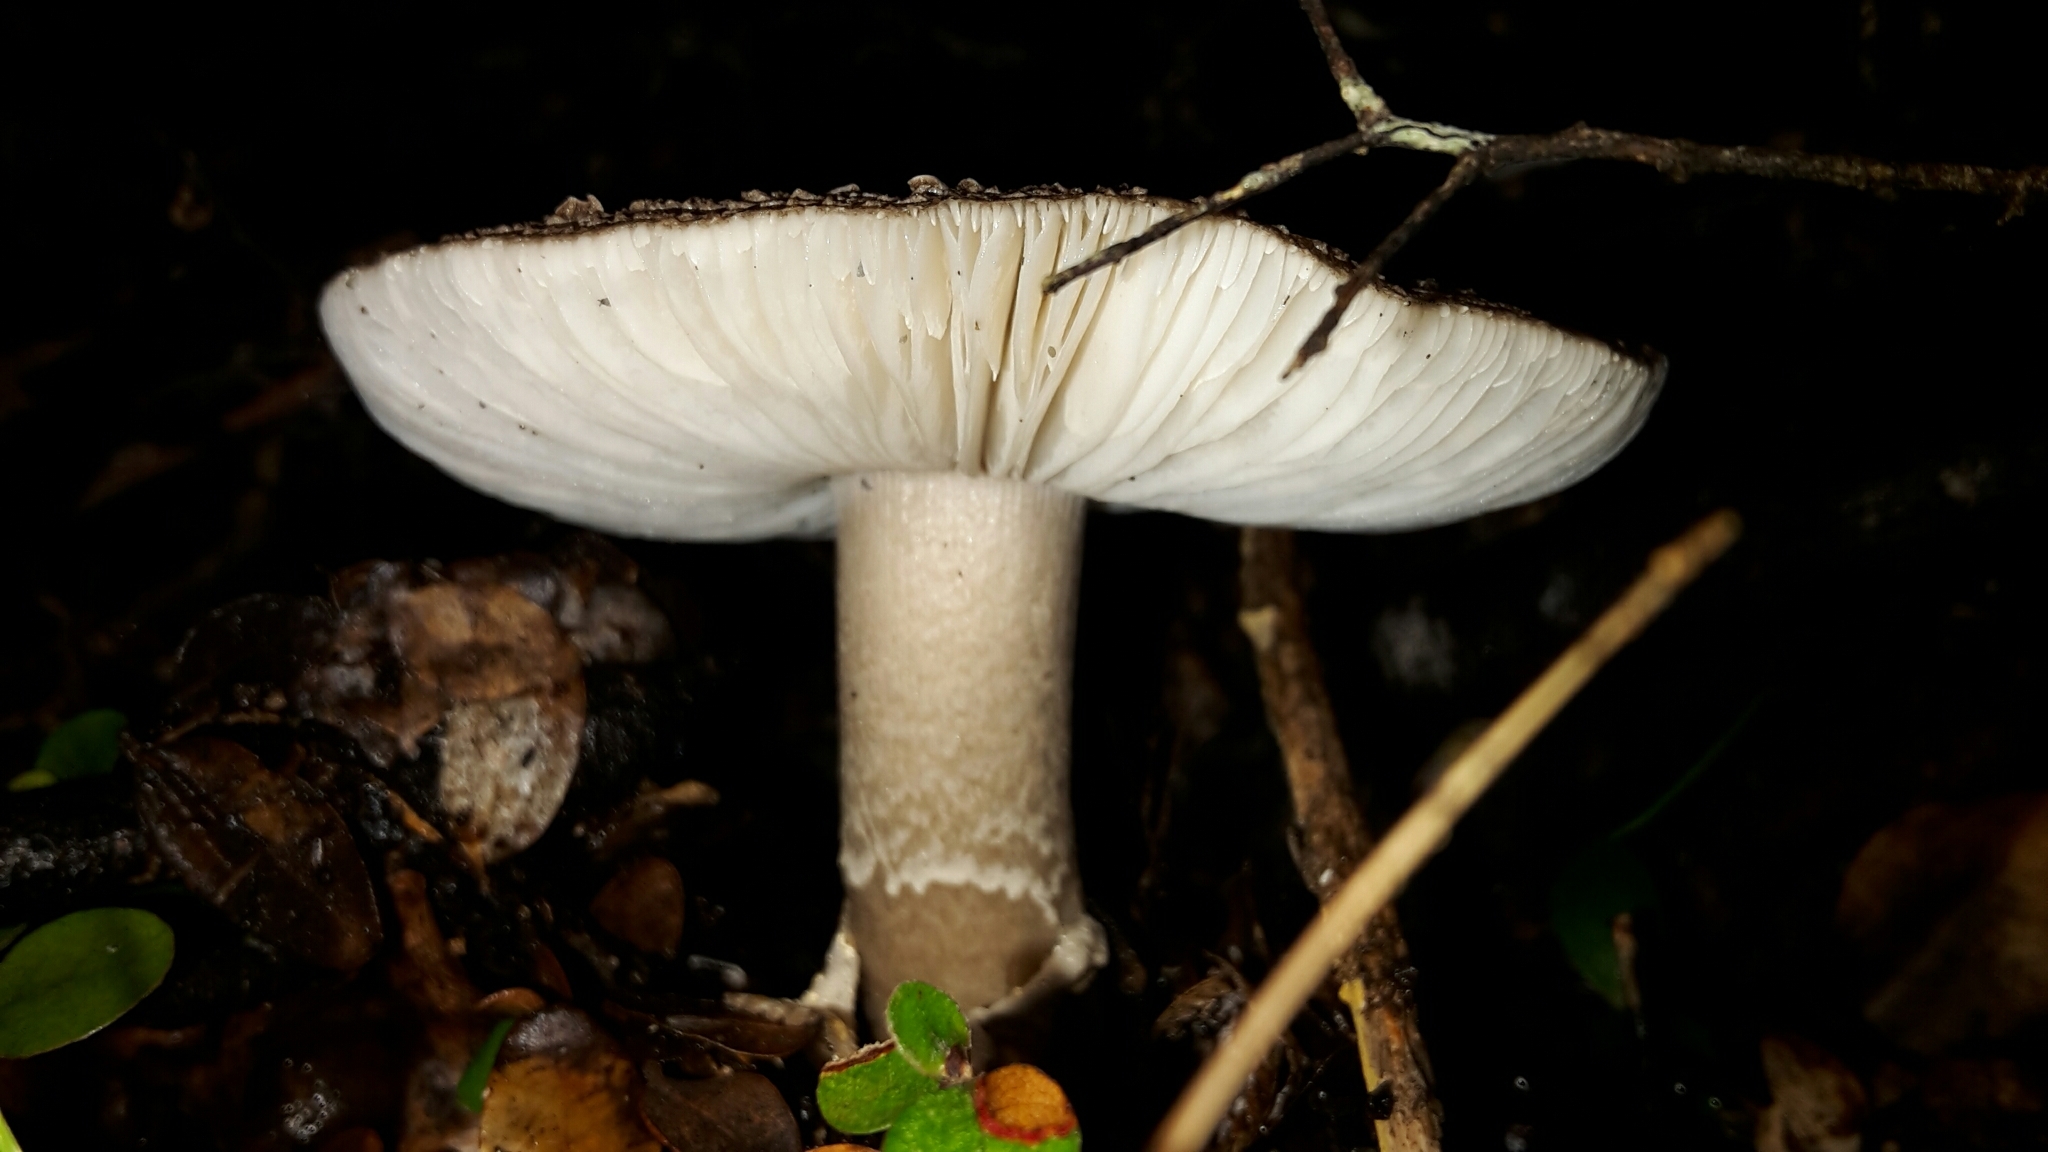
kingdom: Fungi
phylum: Basidiomycota
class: Agaricomycetes
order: Agaricales
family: Amanitaceae
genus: Amanita
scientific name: Amanita nothofagi
